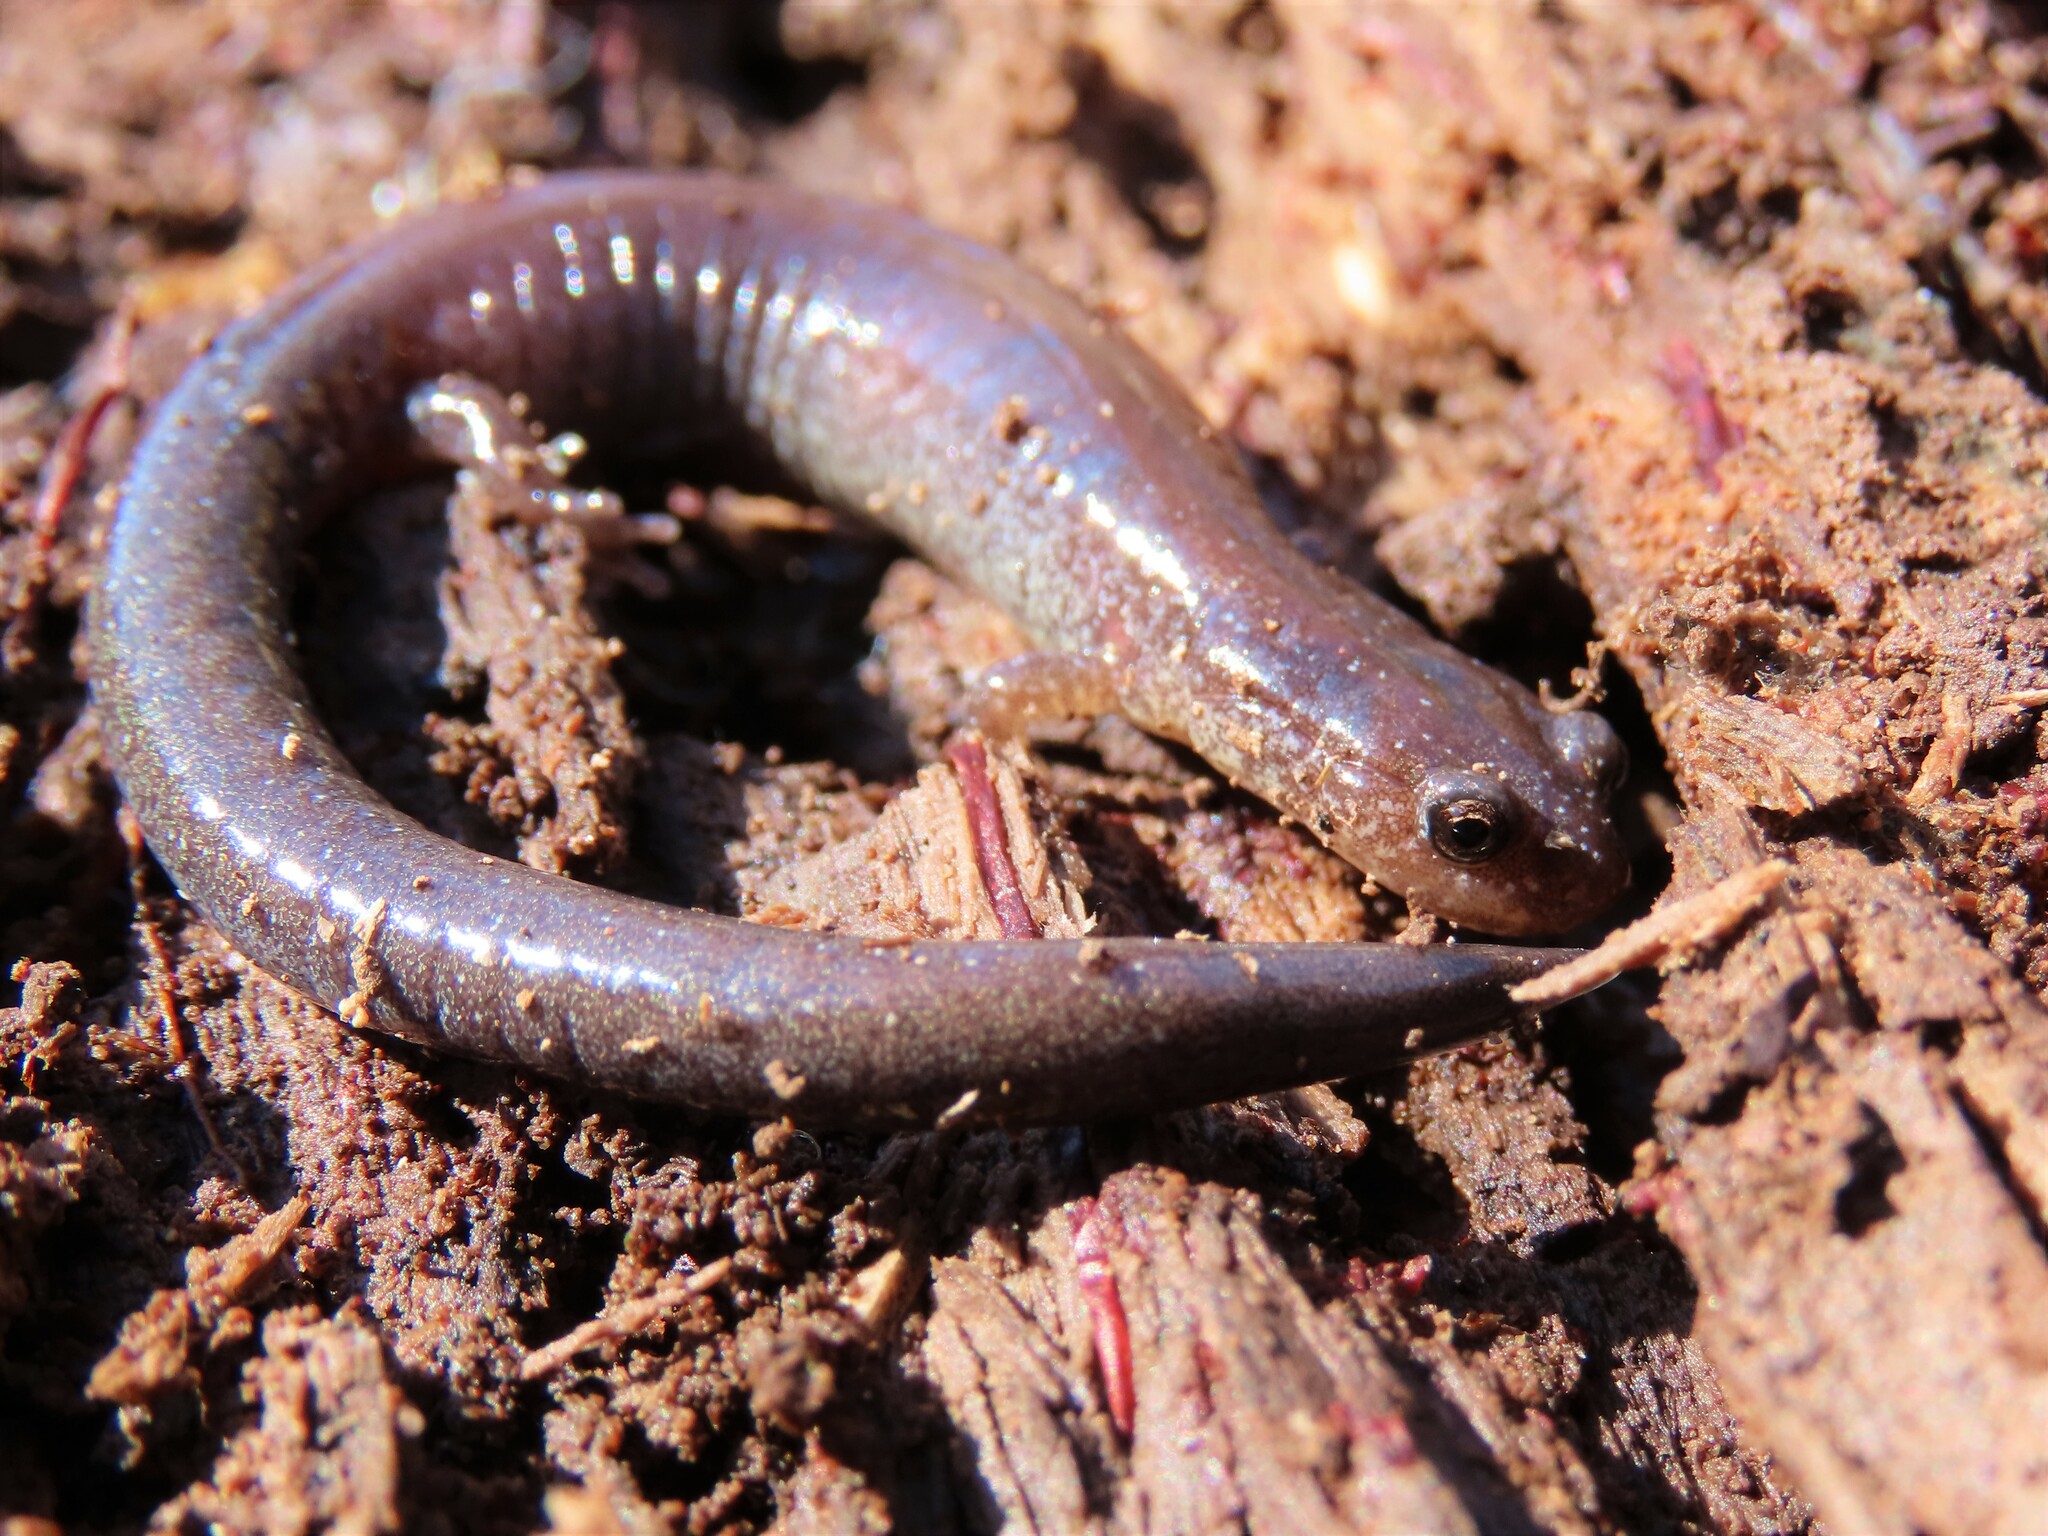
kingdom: Animalia
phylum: Chordata
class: Amphibia
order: Caudata
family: Plethodontidae
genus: Plethodon
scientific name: Plethodon cinereus
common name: Redback salamander
